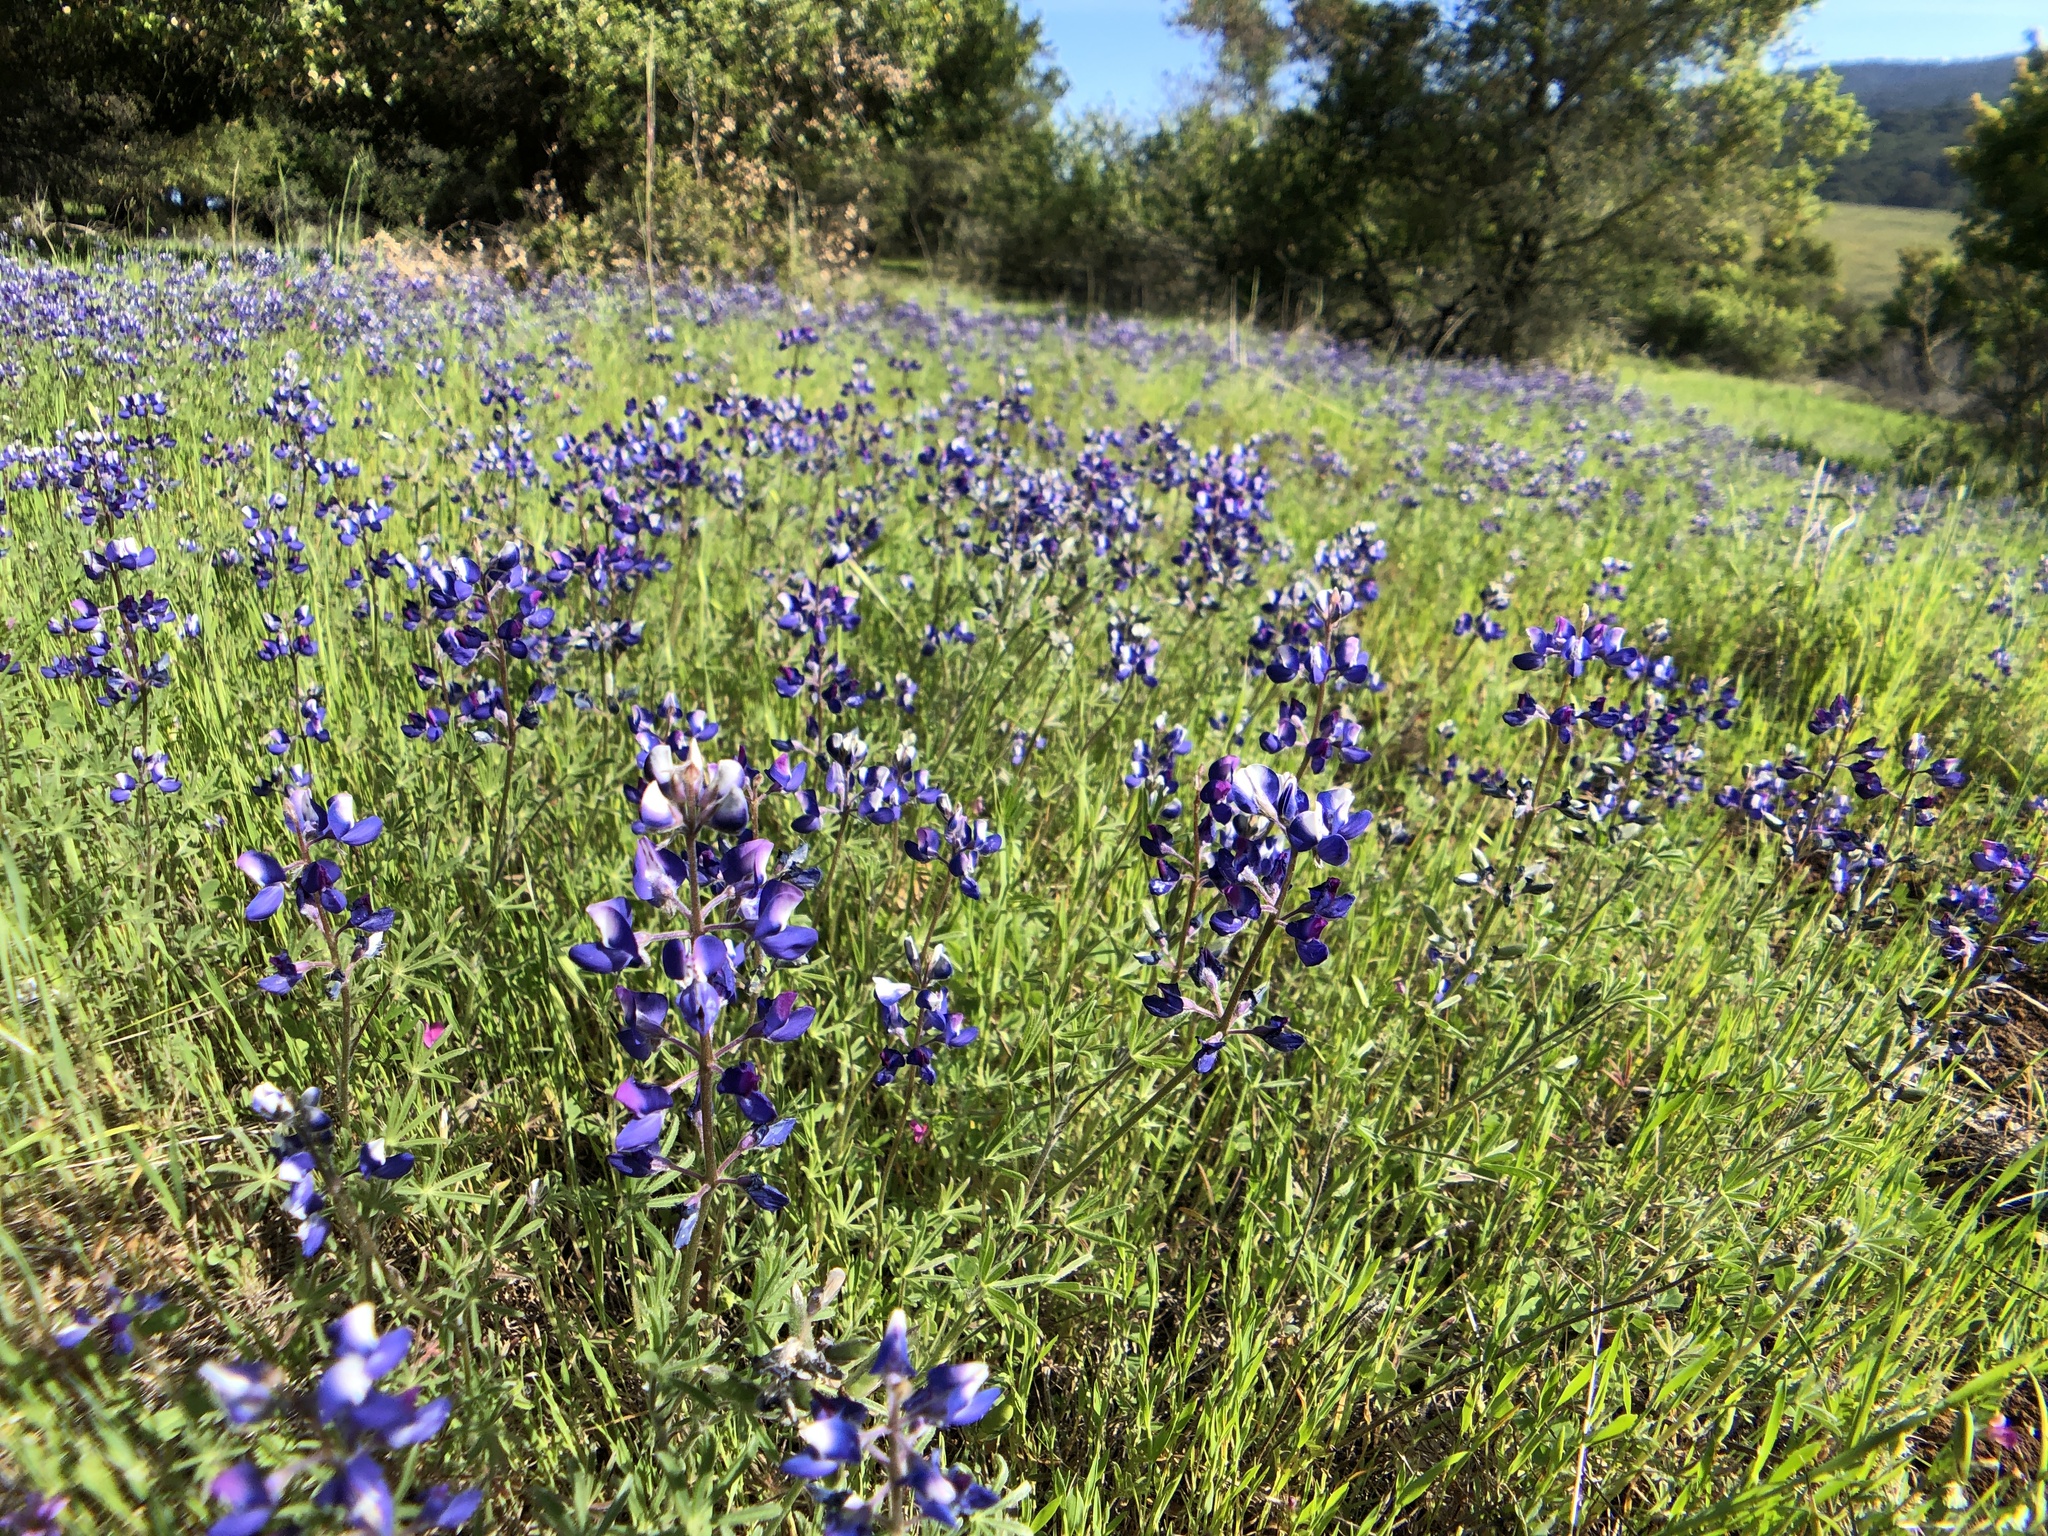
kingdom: Plantae
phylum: Tracheophyta
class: Magnoliopsida
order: Fabales
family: Fabaceae
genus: Lupinus
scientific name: Lupinus nanus
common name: Orean blue lupin
